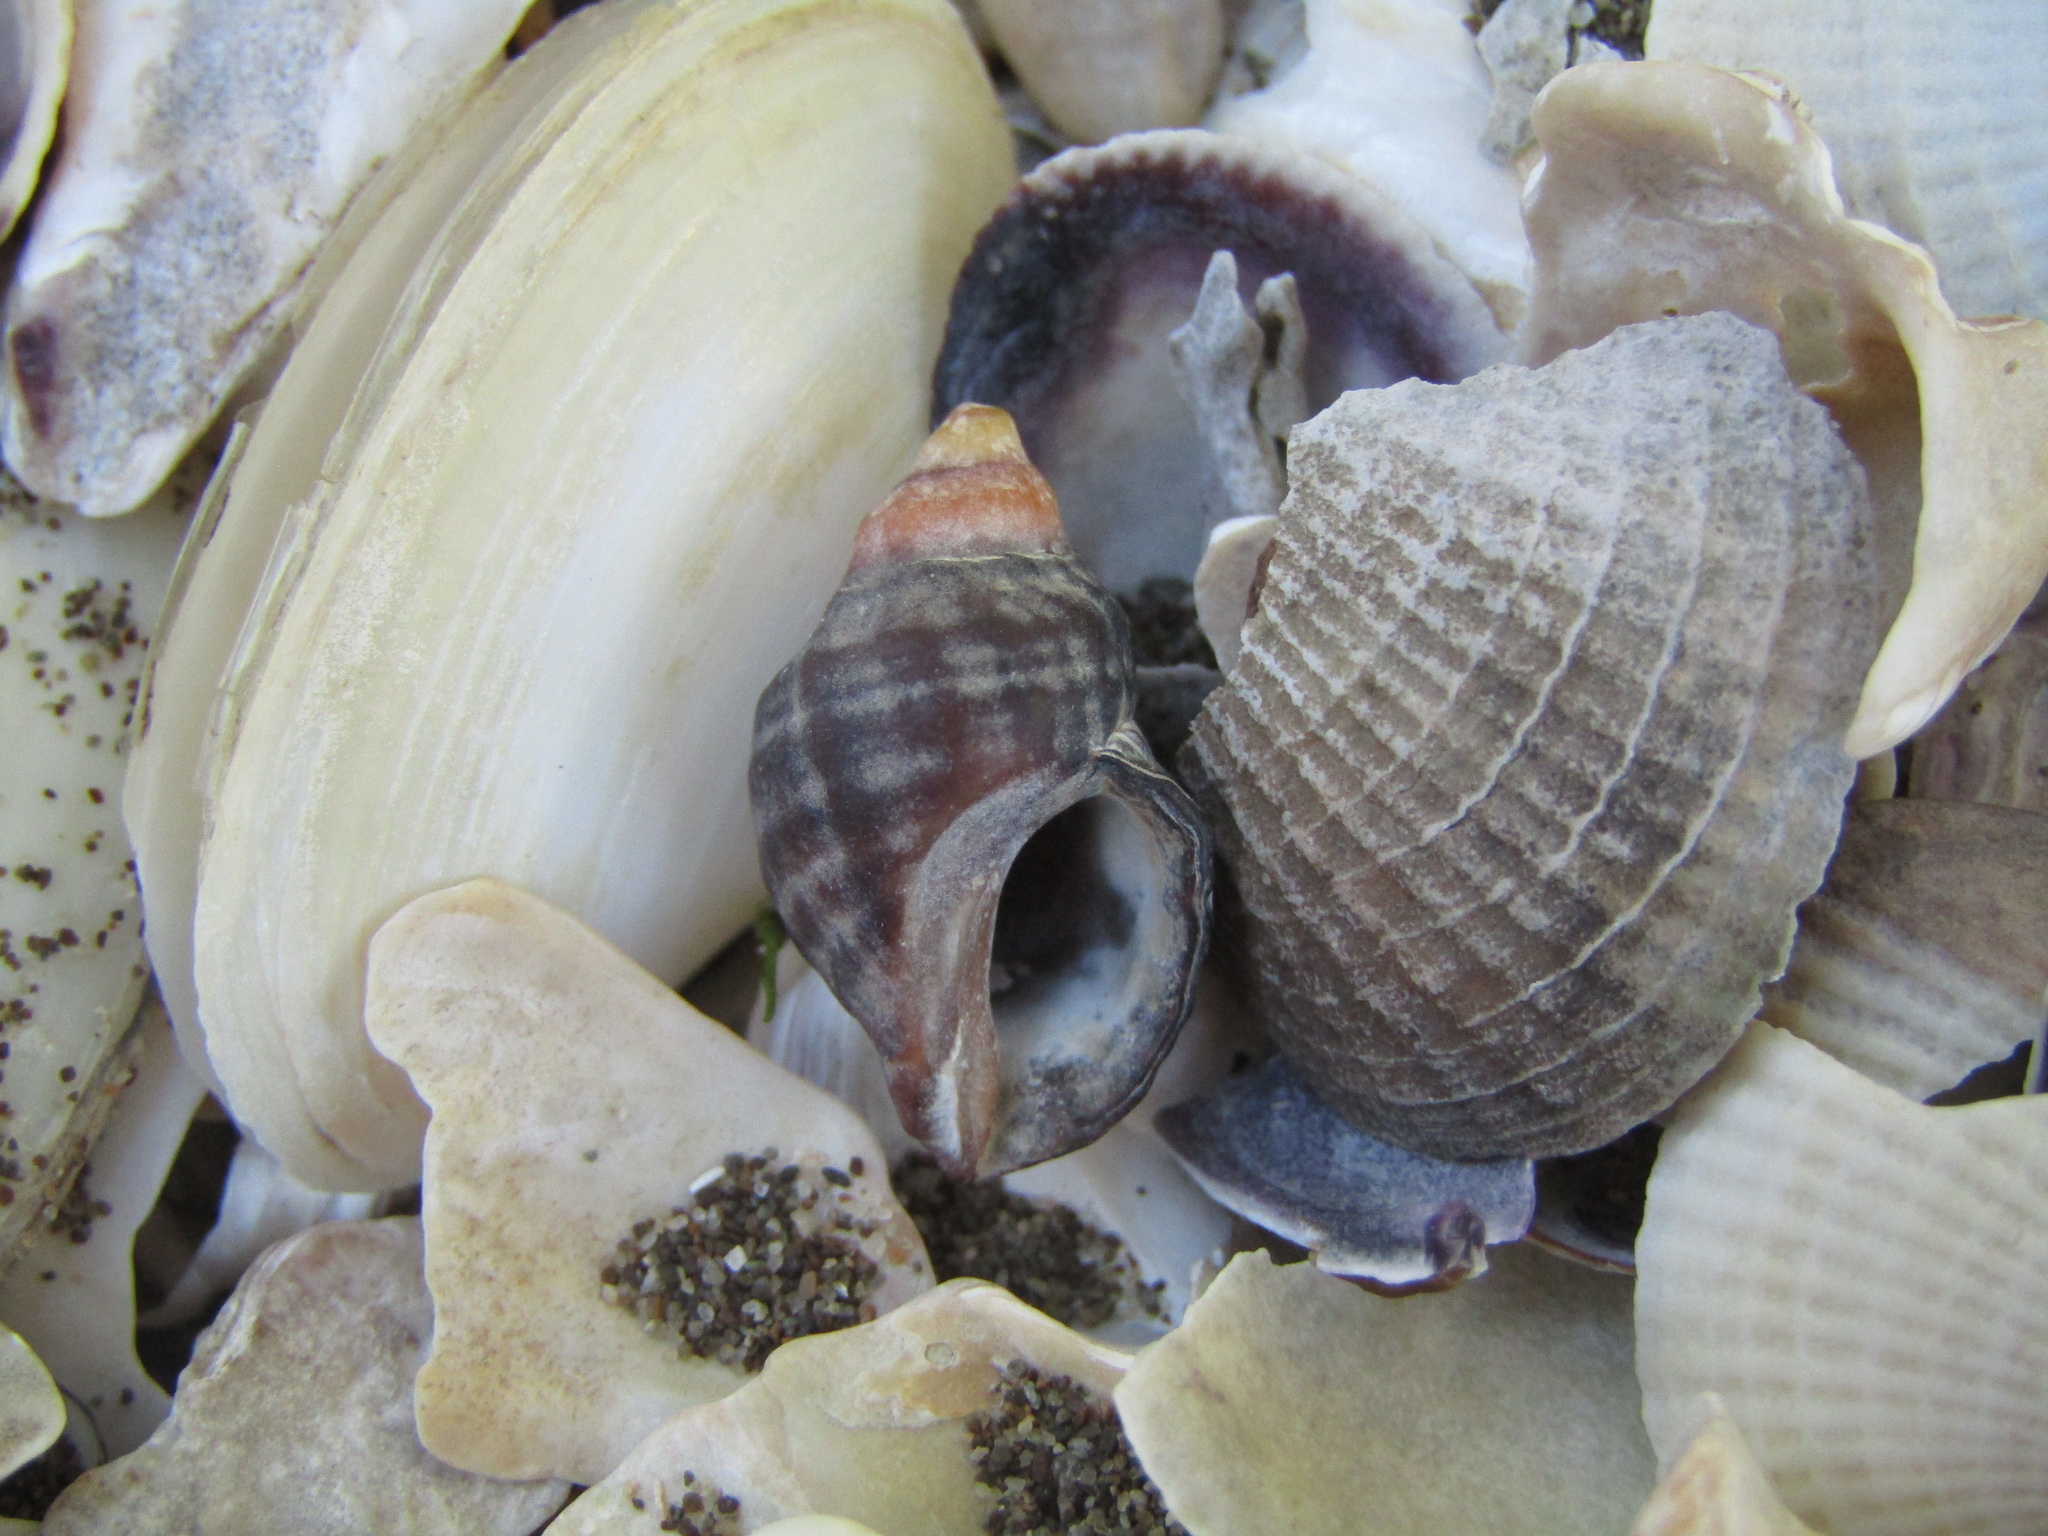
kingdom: Animalia
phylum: Mollusca
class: Gastropoda
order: Neogastropoda
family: Muricidae
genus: Haustrum
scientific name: Haustrum albomarginatum
